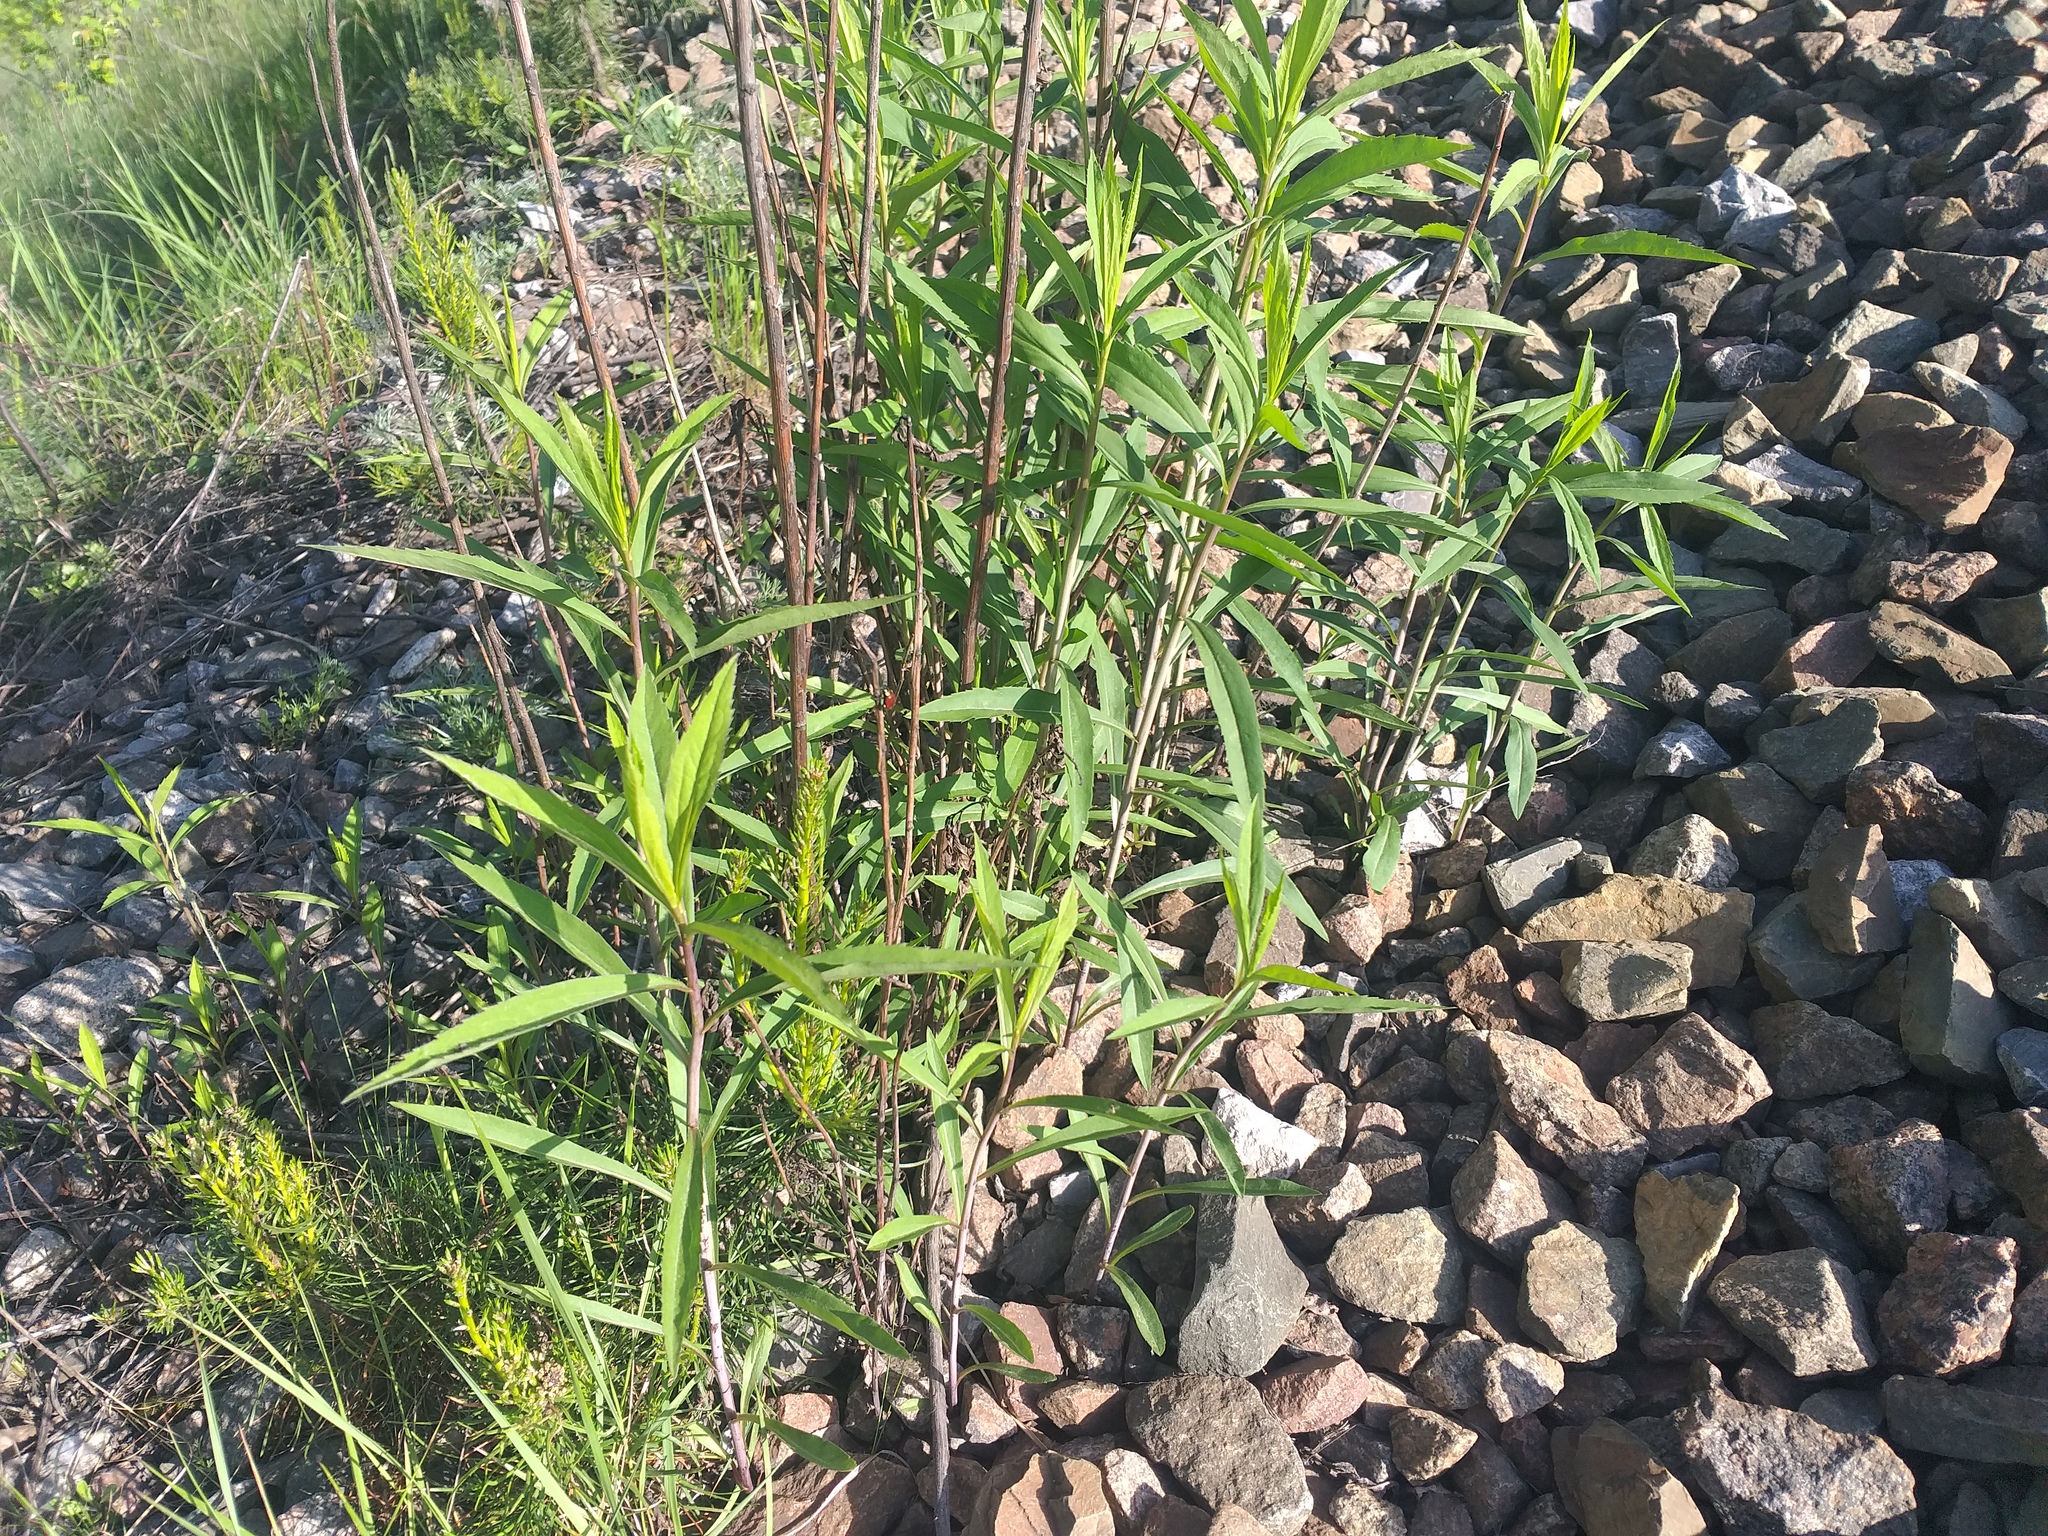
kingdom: Plantae
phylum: Tracheophyta
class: Magnoliopsida
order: Asterales
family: Asteraceae
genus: Solidago
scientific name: Solidago gigantea
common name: Giant goldenrod
